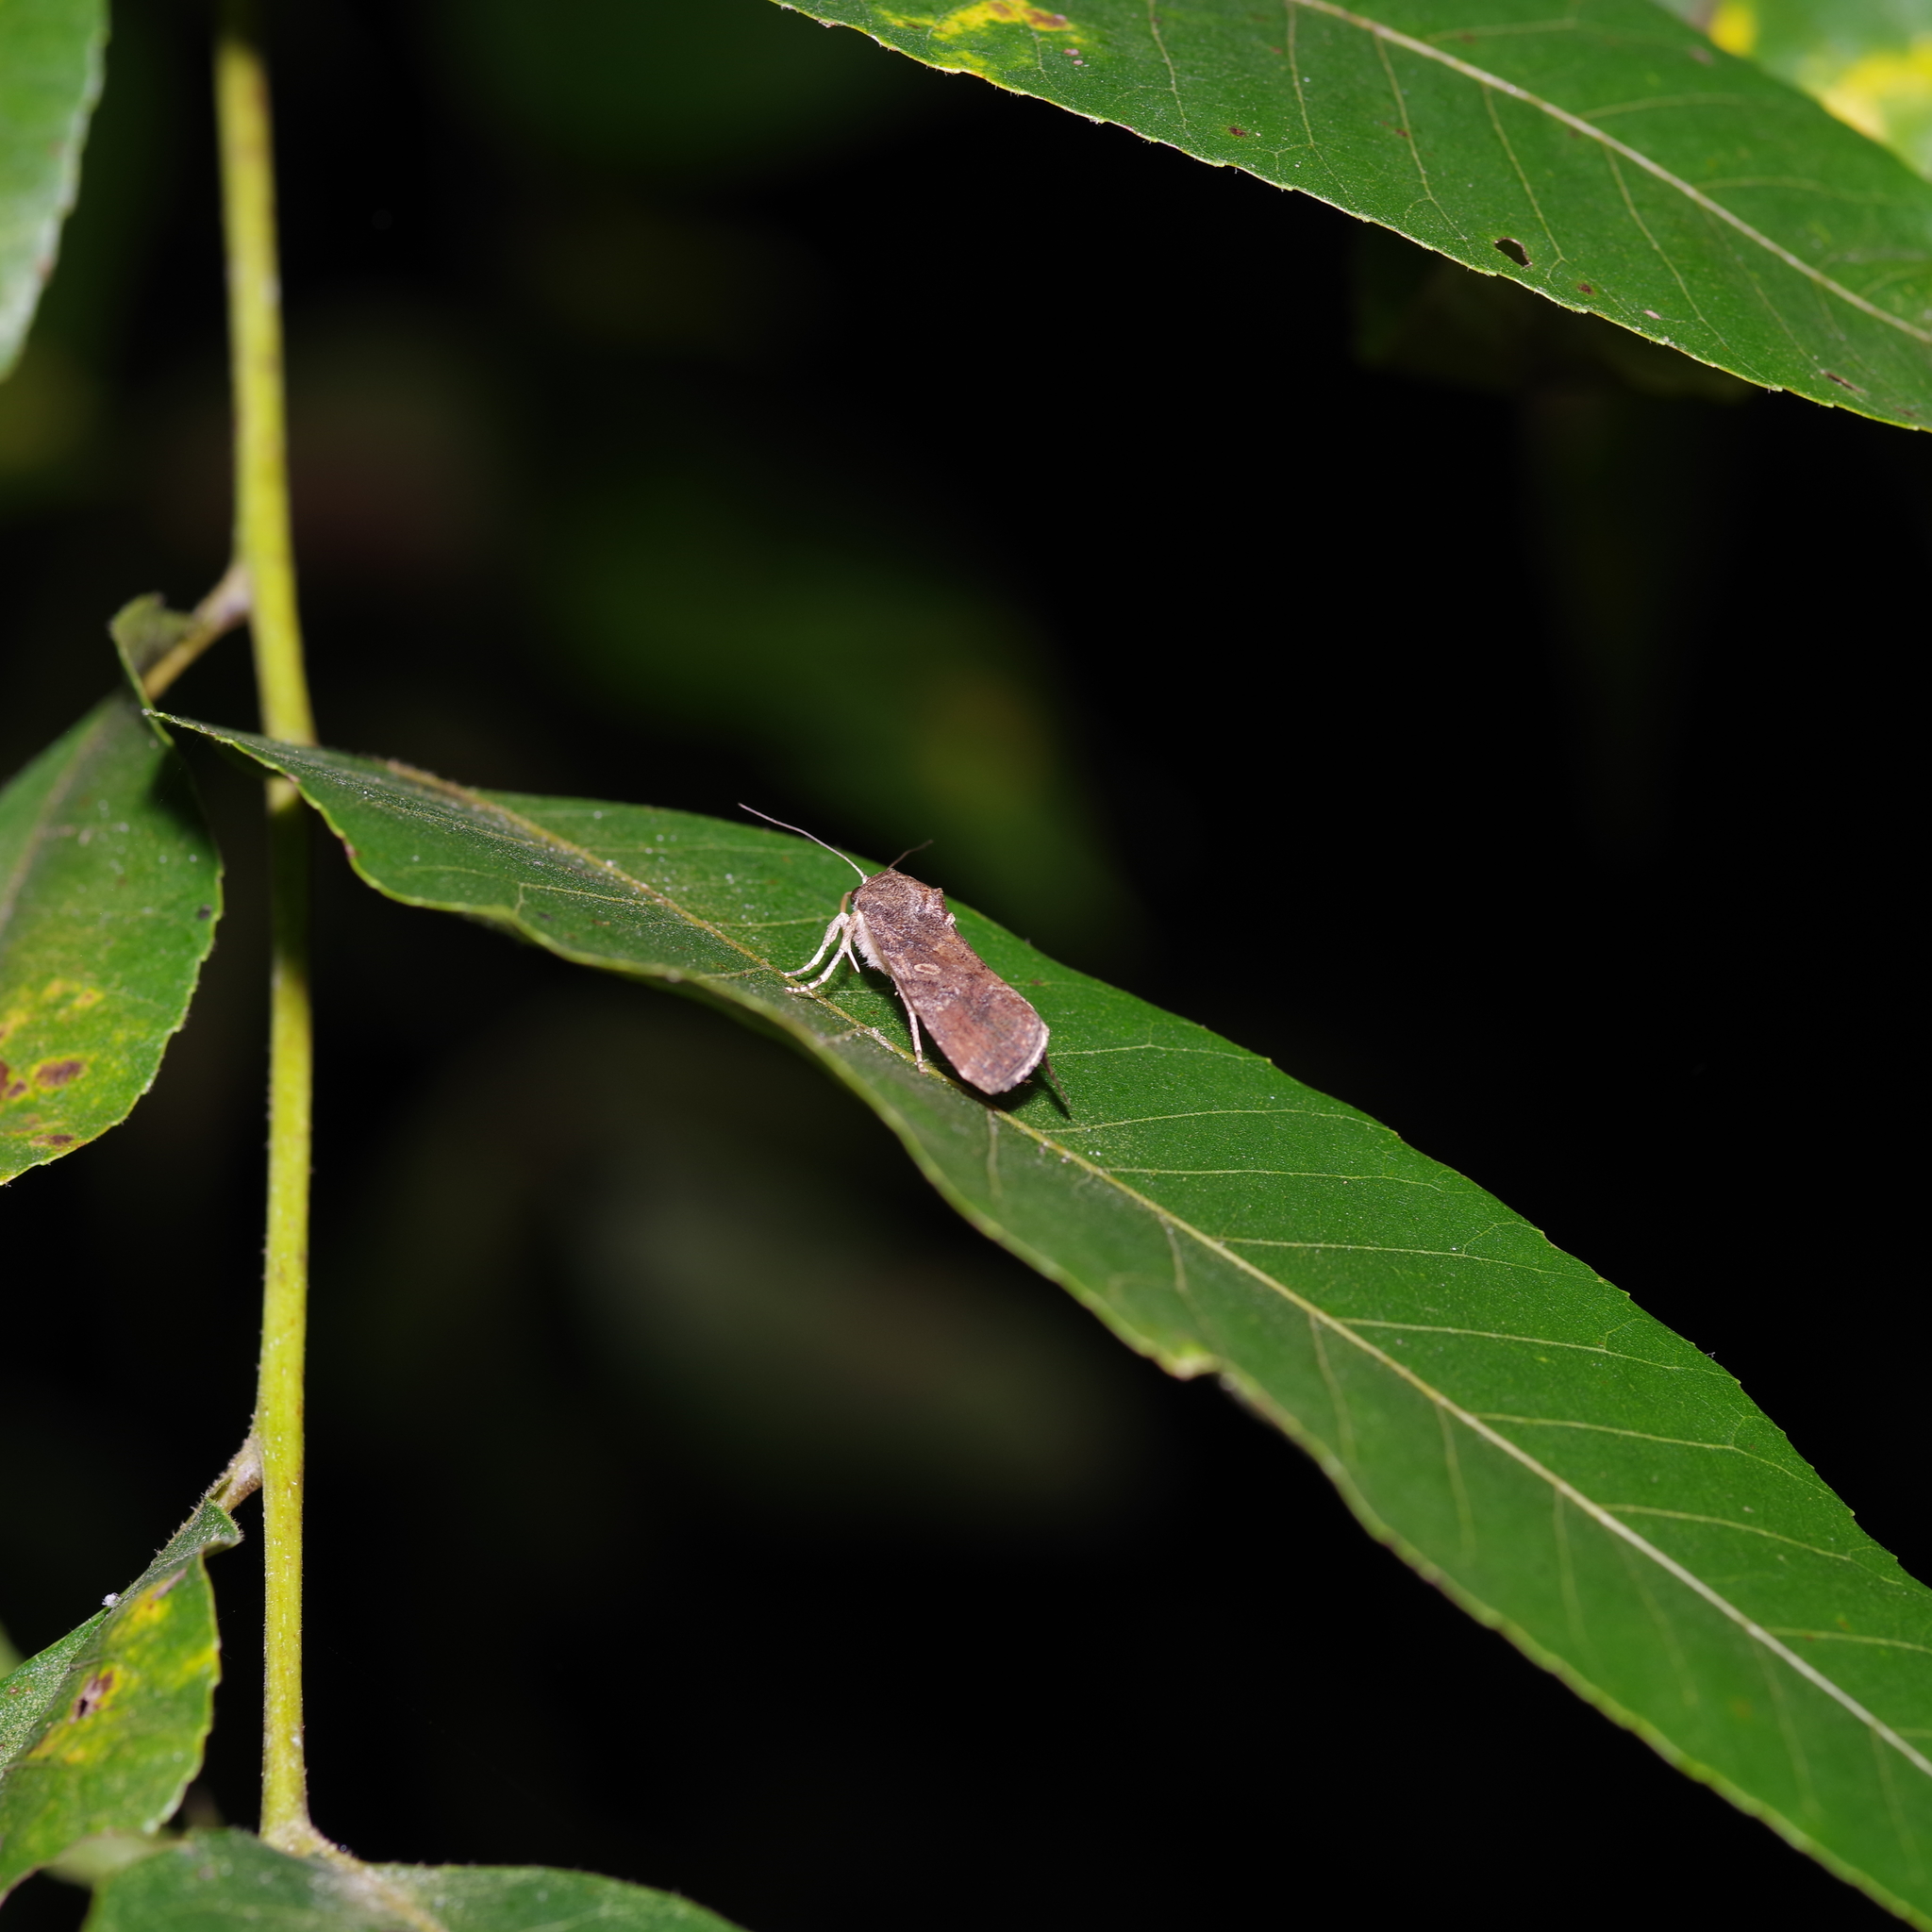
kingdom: Animalia
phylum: Arthropoda
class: Insecta
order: Lepidoptera
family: Noctuidae
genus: Spodoptera
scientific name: Spodoptera frugiperda
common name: Fall armyworm
